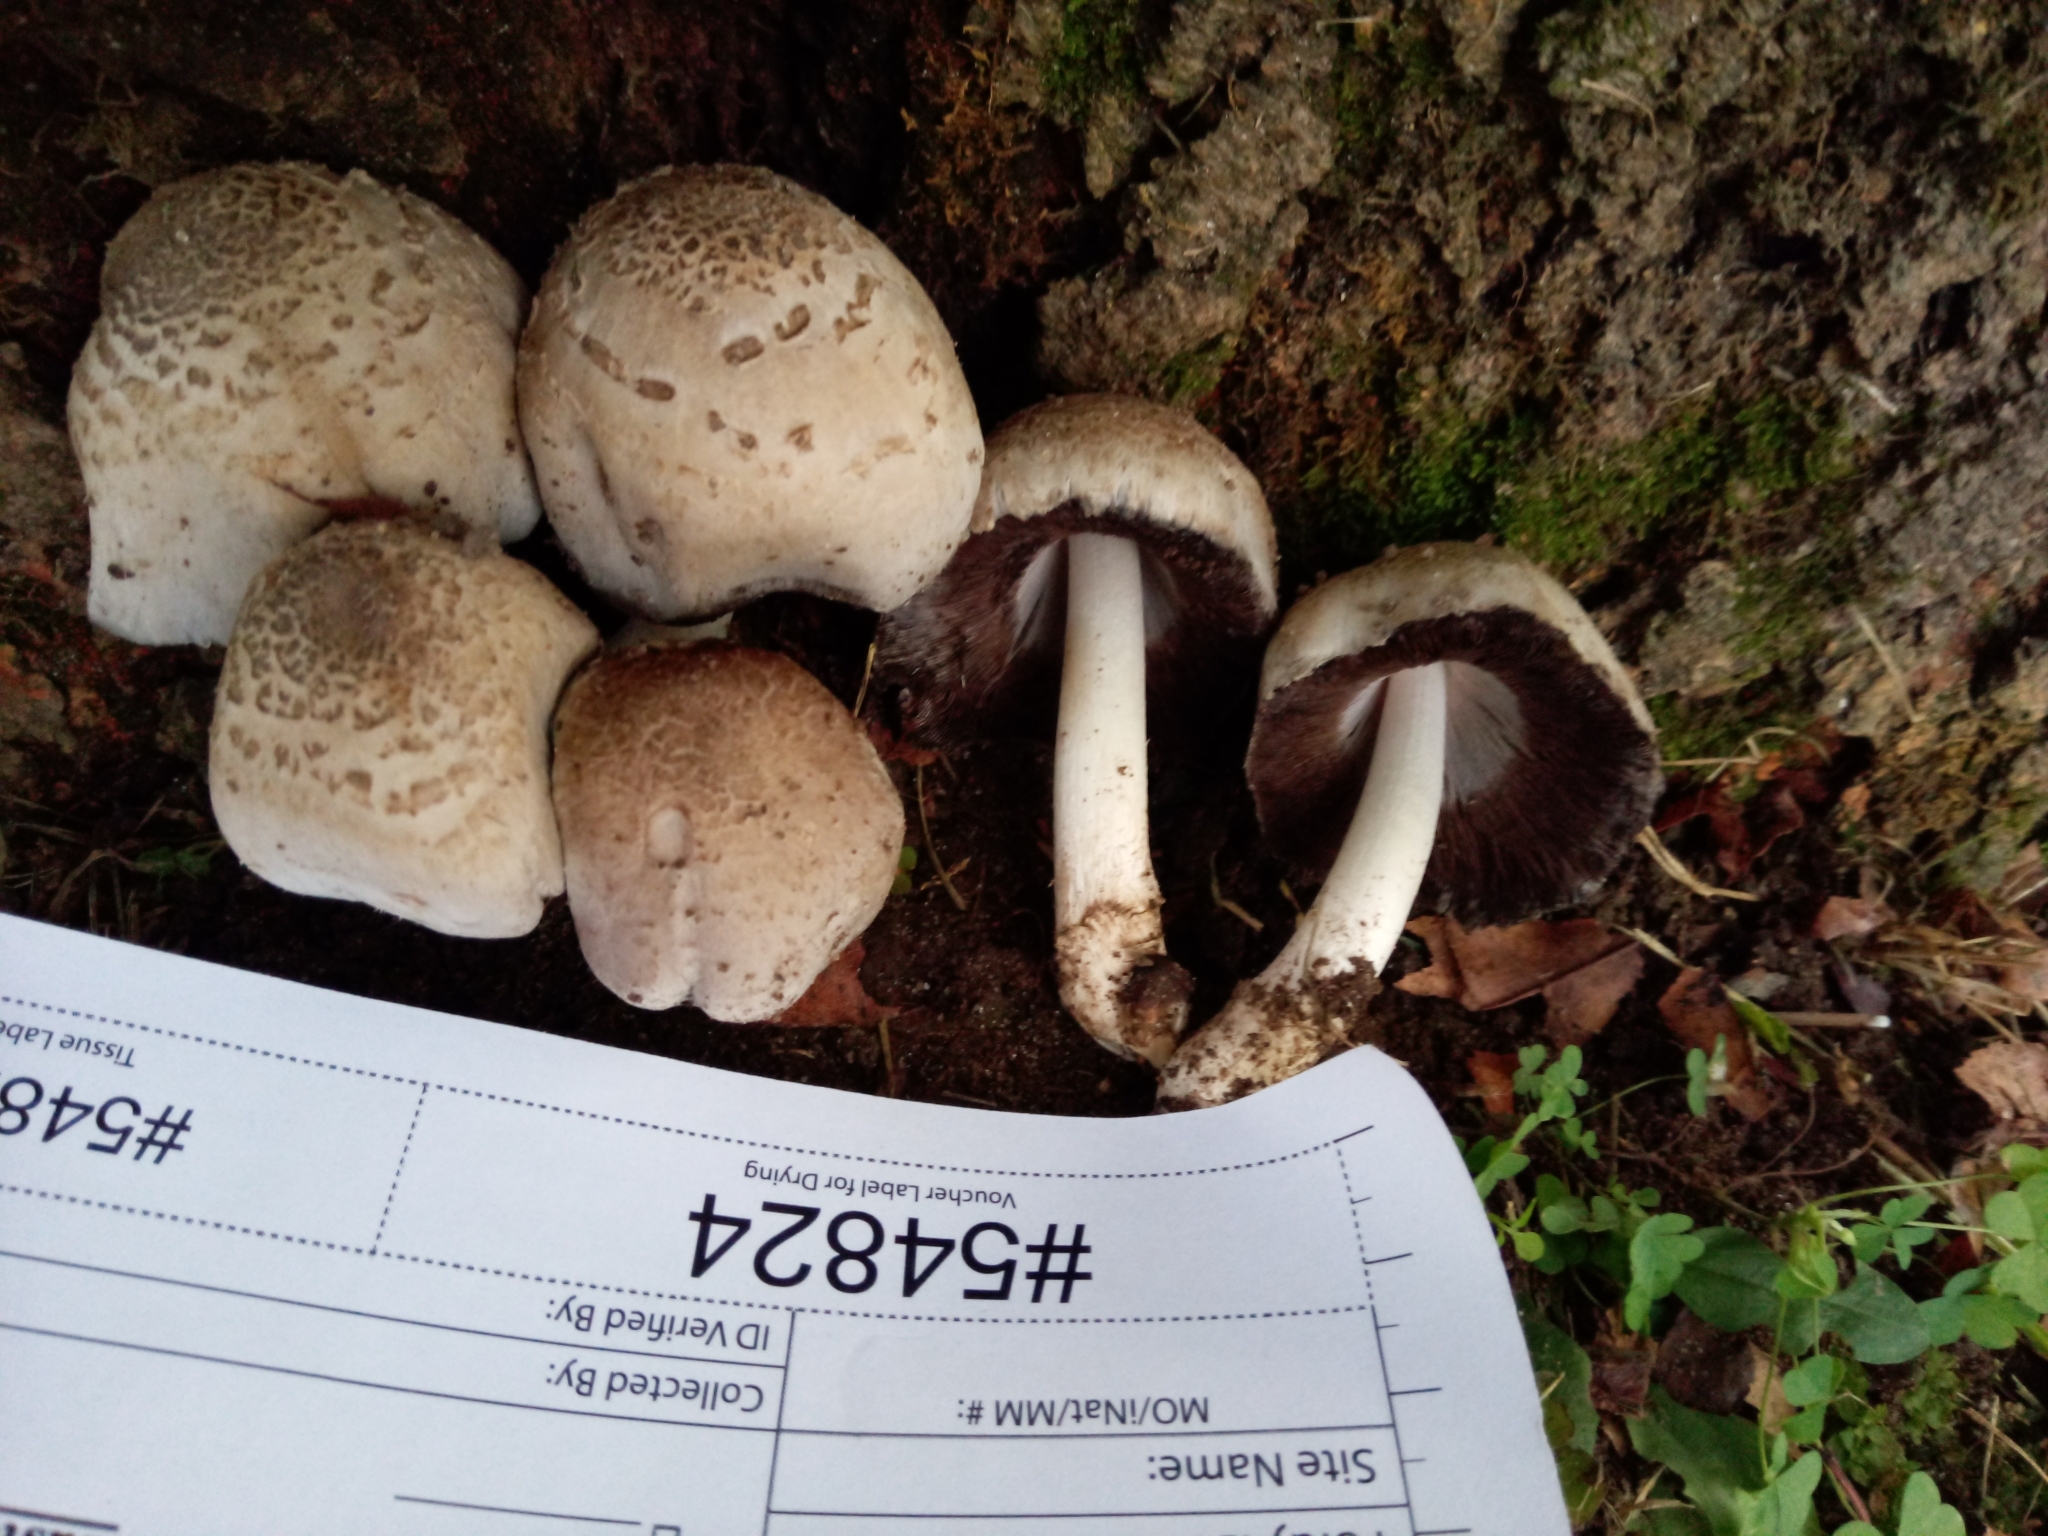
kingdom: Fungi
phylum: Basidiomycota
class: Agaricomycetes
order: Agaricales
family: Psathyrellaceae
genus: Coprinopsis
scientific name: Coprinopsis atramentaria
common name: Common ink-cap
